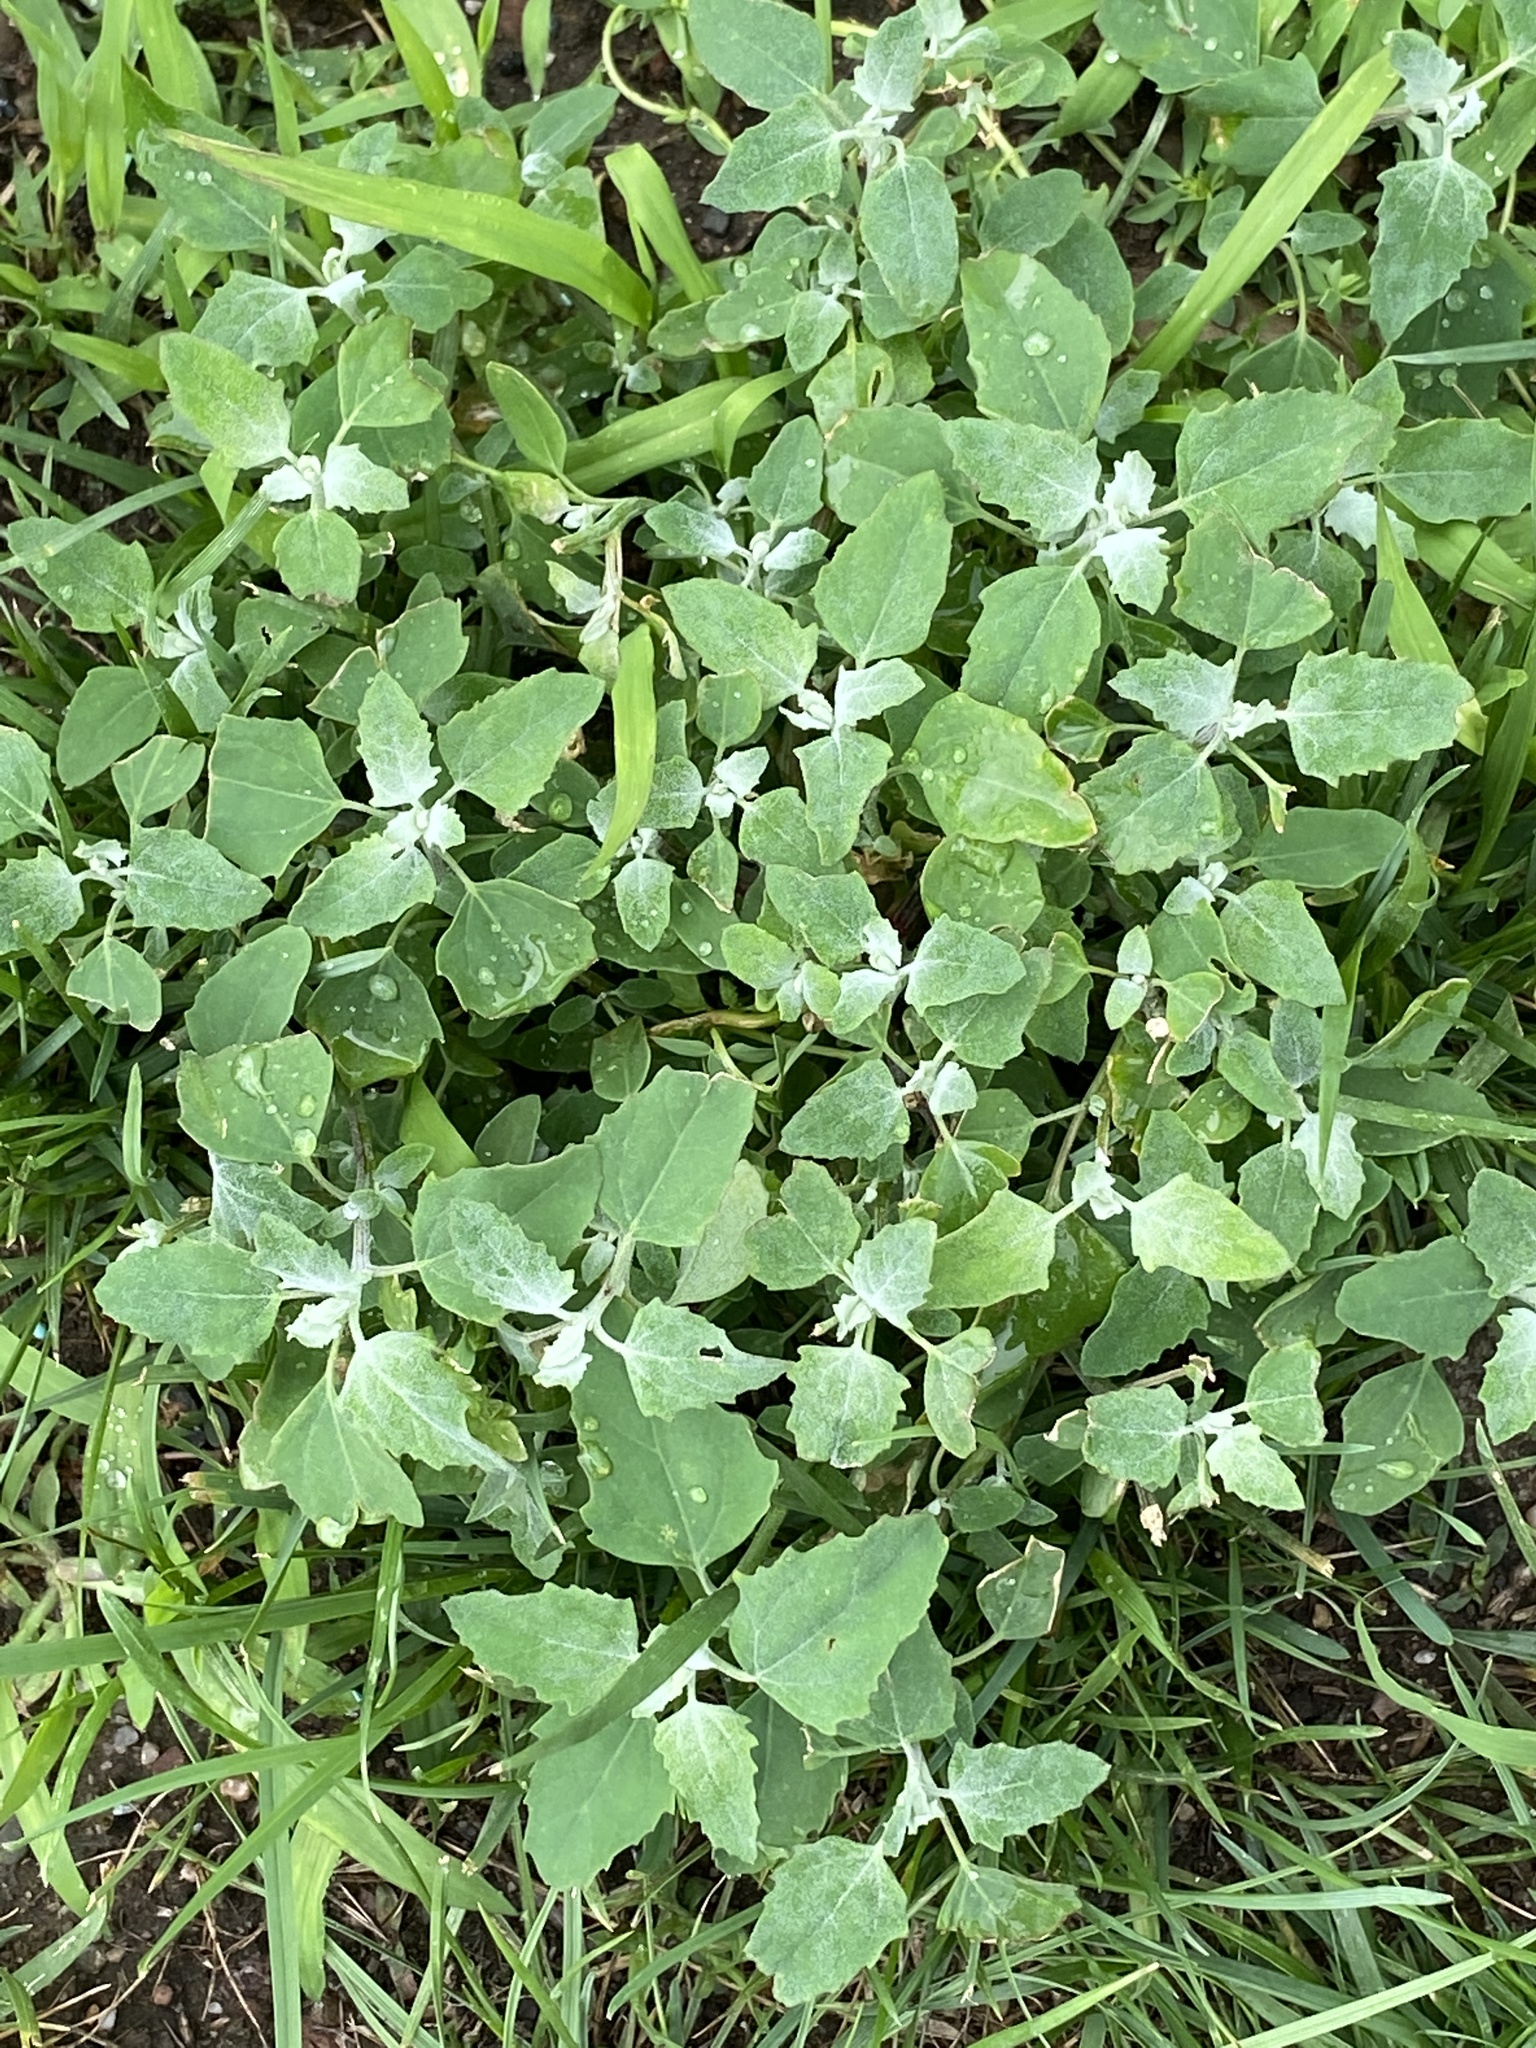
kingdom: Plantae
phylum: Tracheophyta
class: Magnoliopsida
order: Caryophyllales
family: Amaranthaceae
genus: Chenopodium
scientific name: Chenopodium album
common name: Fat-hen
